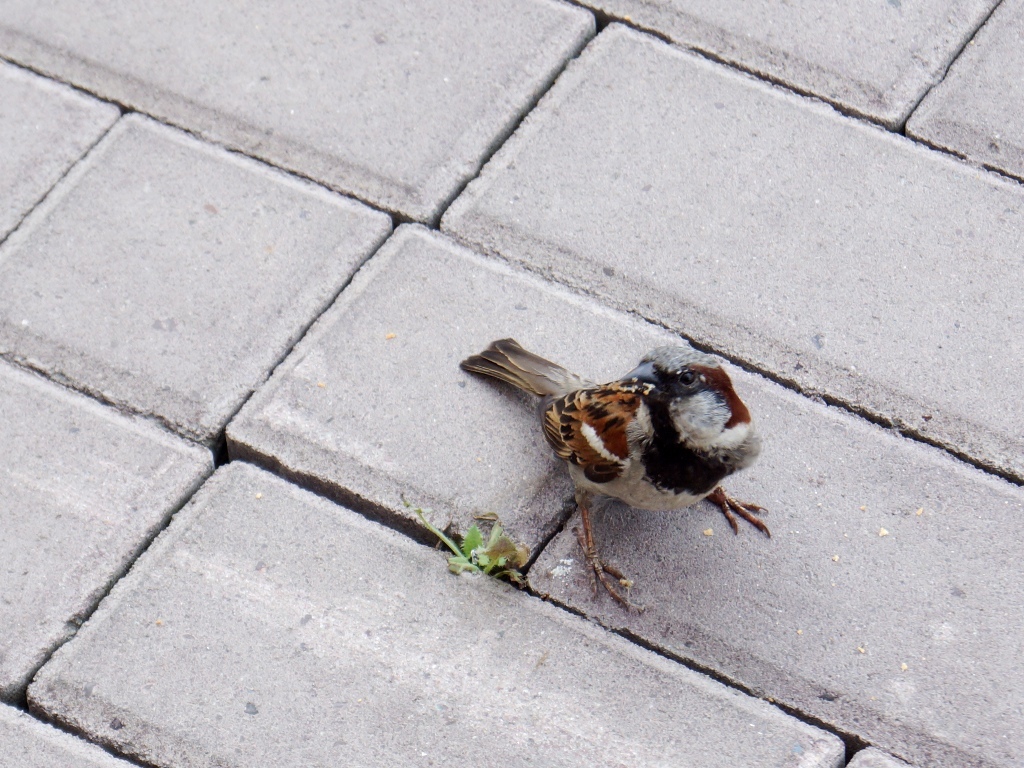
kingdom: Animalia
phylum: Chordata
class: Aves
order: Passeriformes
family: Passeridae
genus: Passer
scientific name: Passer domesticus
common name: House sparrow
